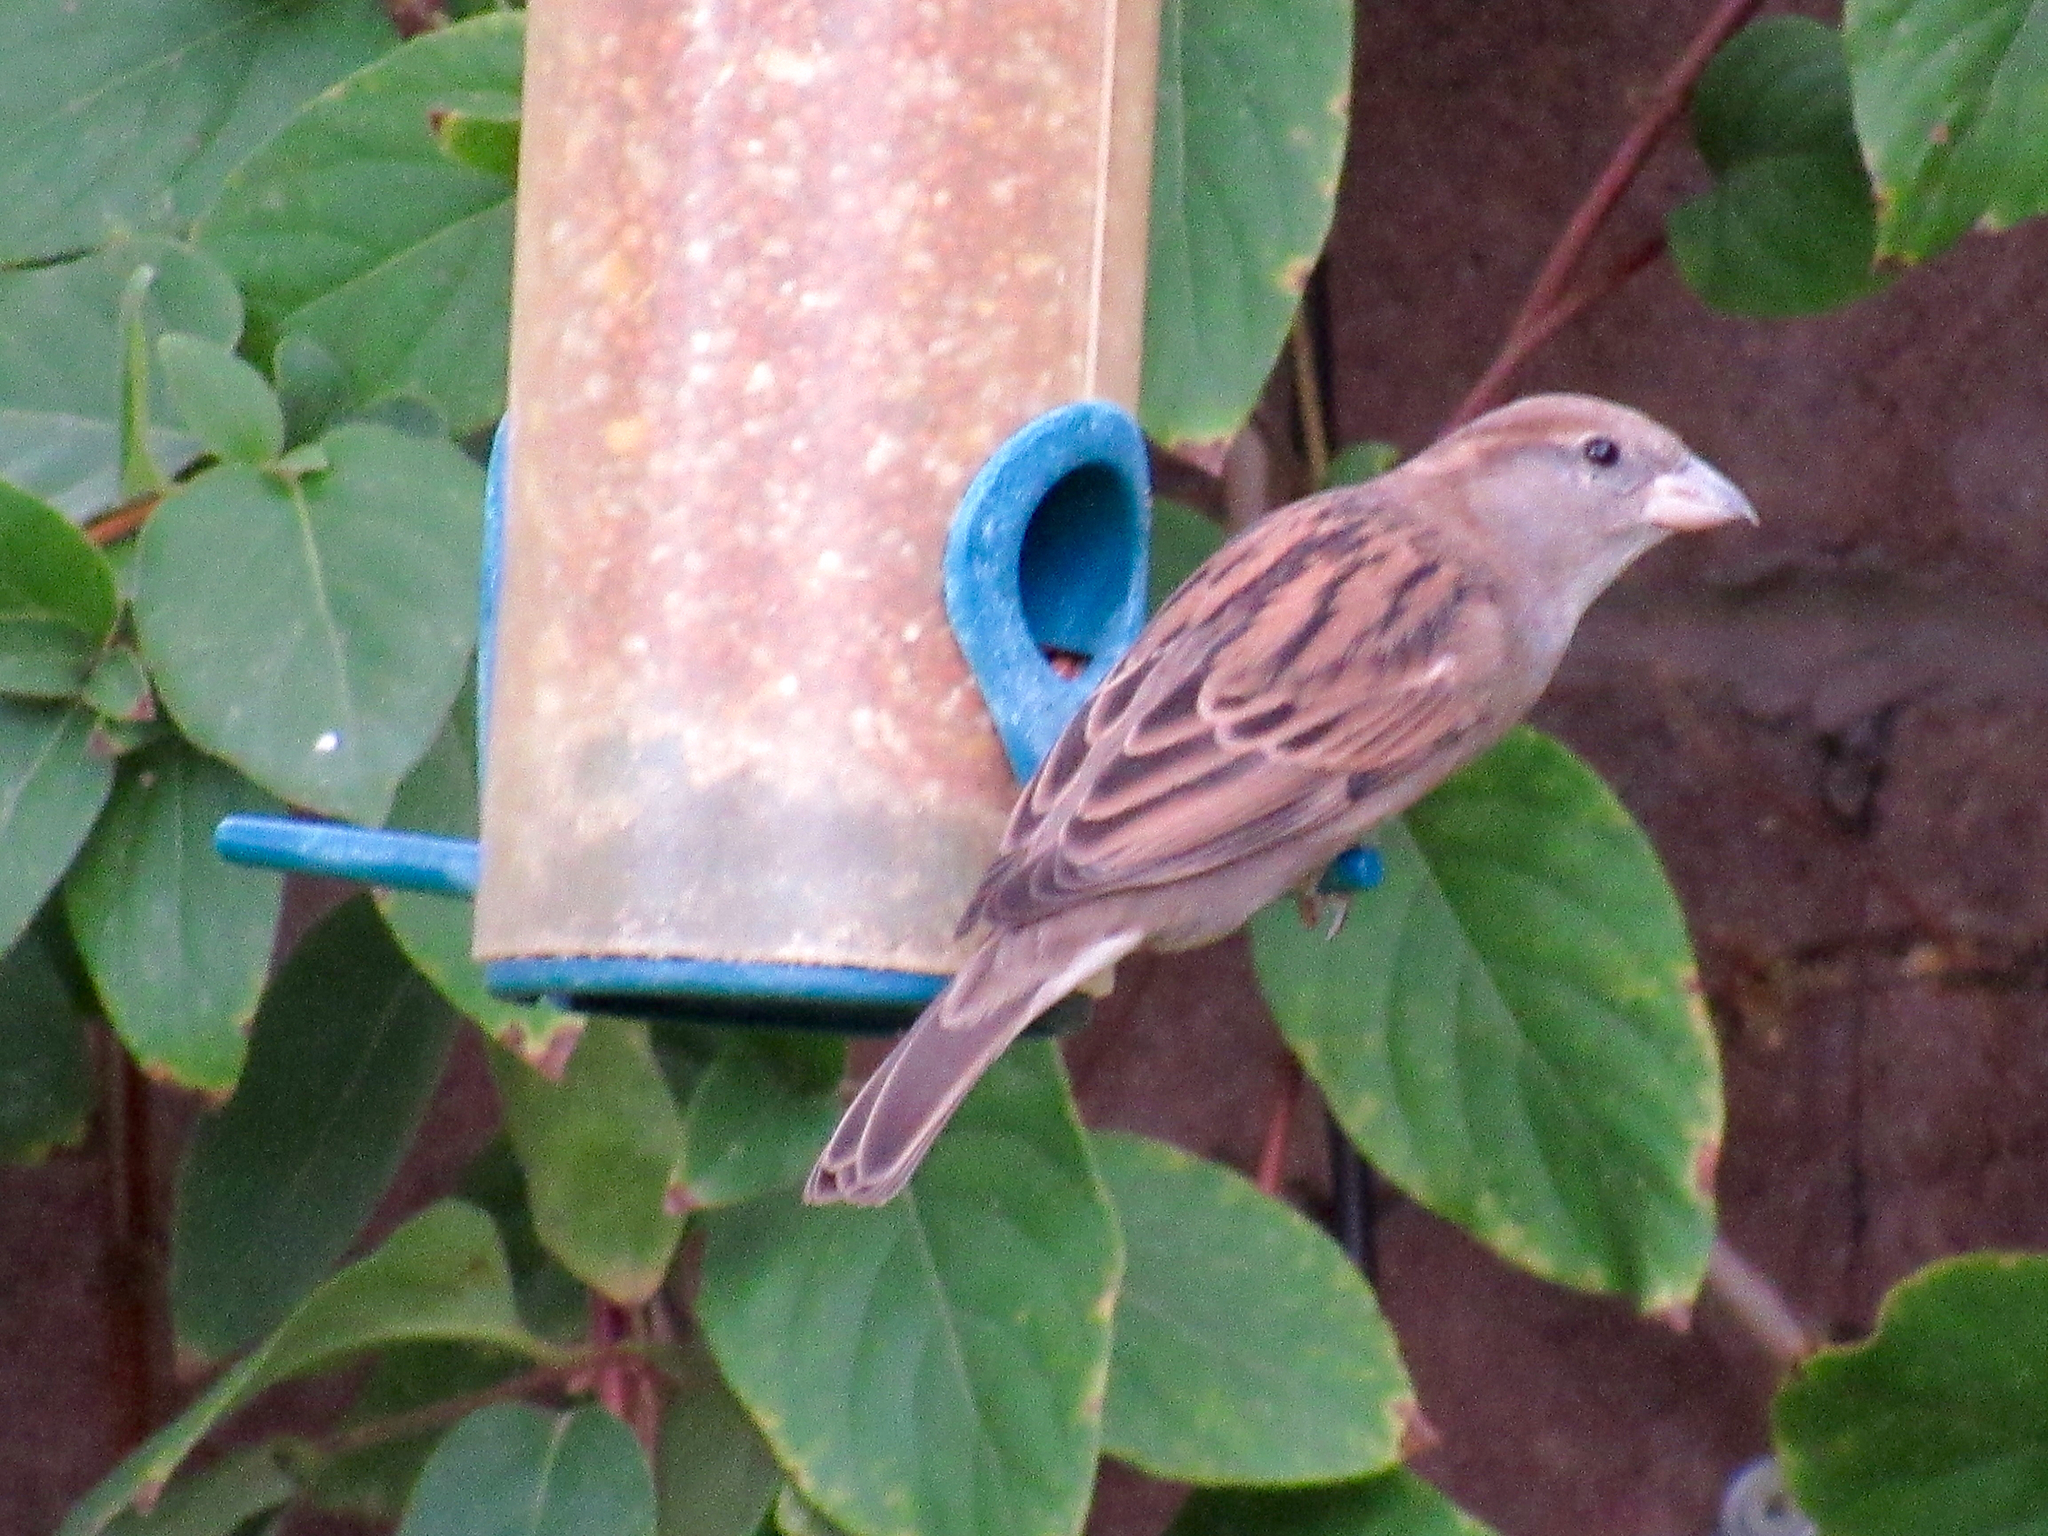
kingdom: Animalia
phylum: Chordata
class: Aves
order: Passeriformes
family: Fringillidae
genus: Haemorhous
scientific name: Haemorhous mexicanus
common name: House finch
